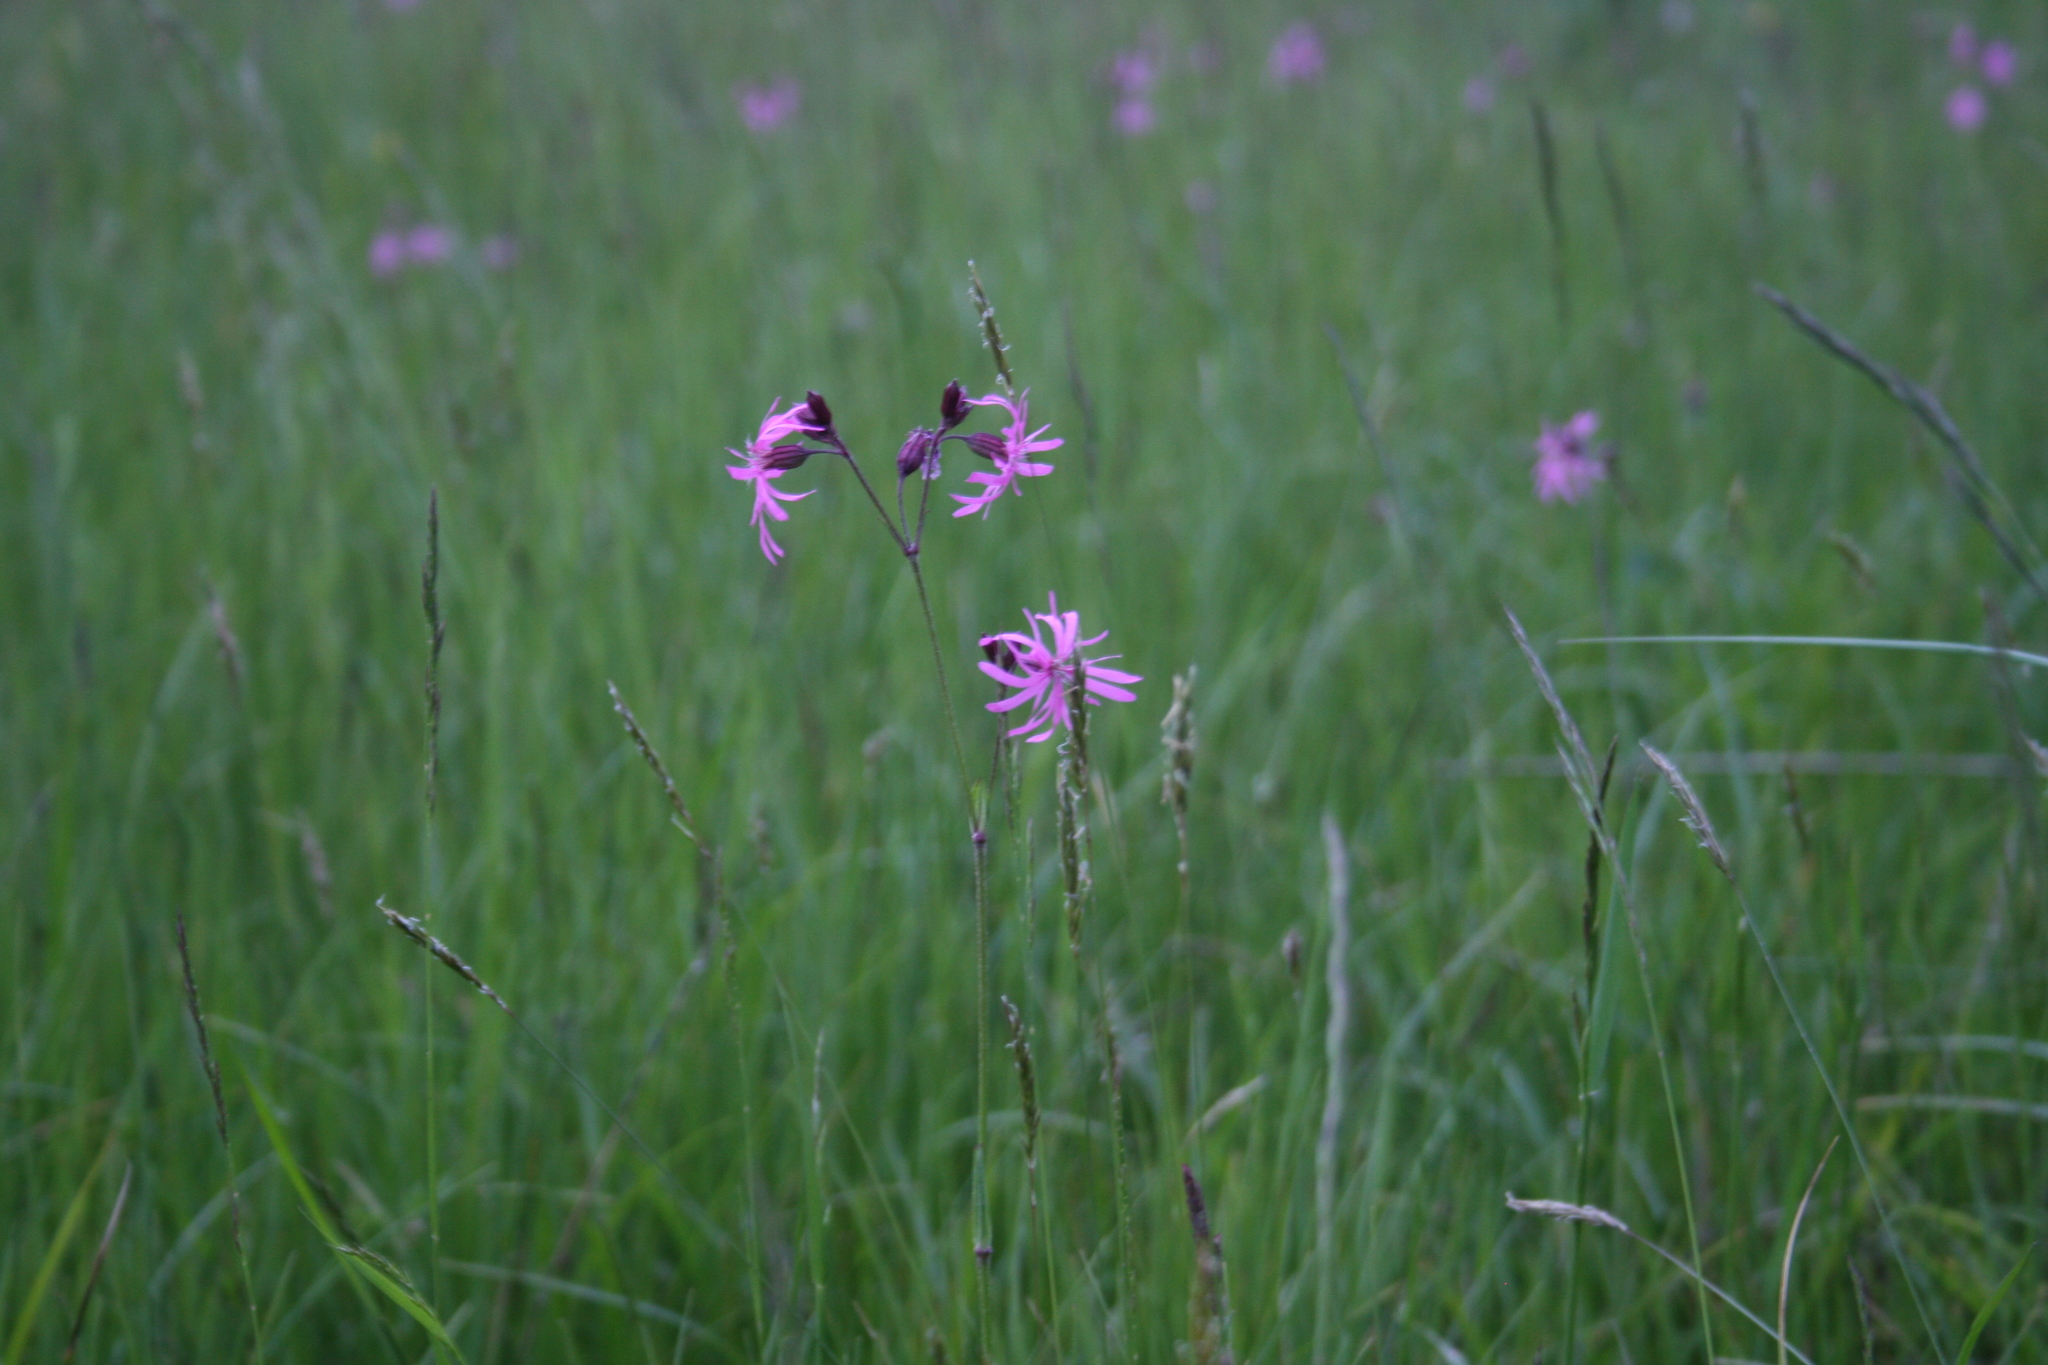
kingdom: Plantae
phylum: Tracheophyta
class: Liliopsida
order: Poales
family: Poaceae
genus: Anthoxanthum
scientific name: Anthoxanthum odoratum
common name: Sweet vernalgrass
